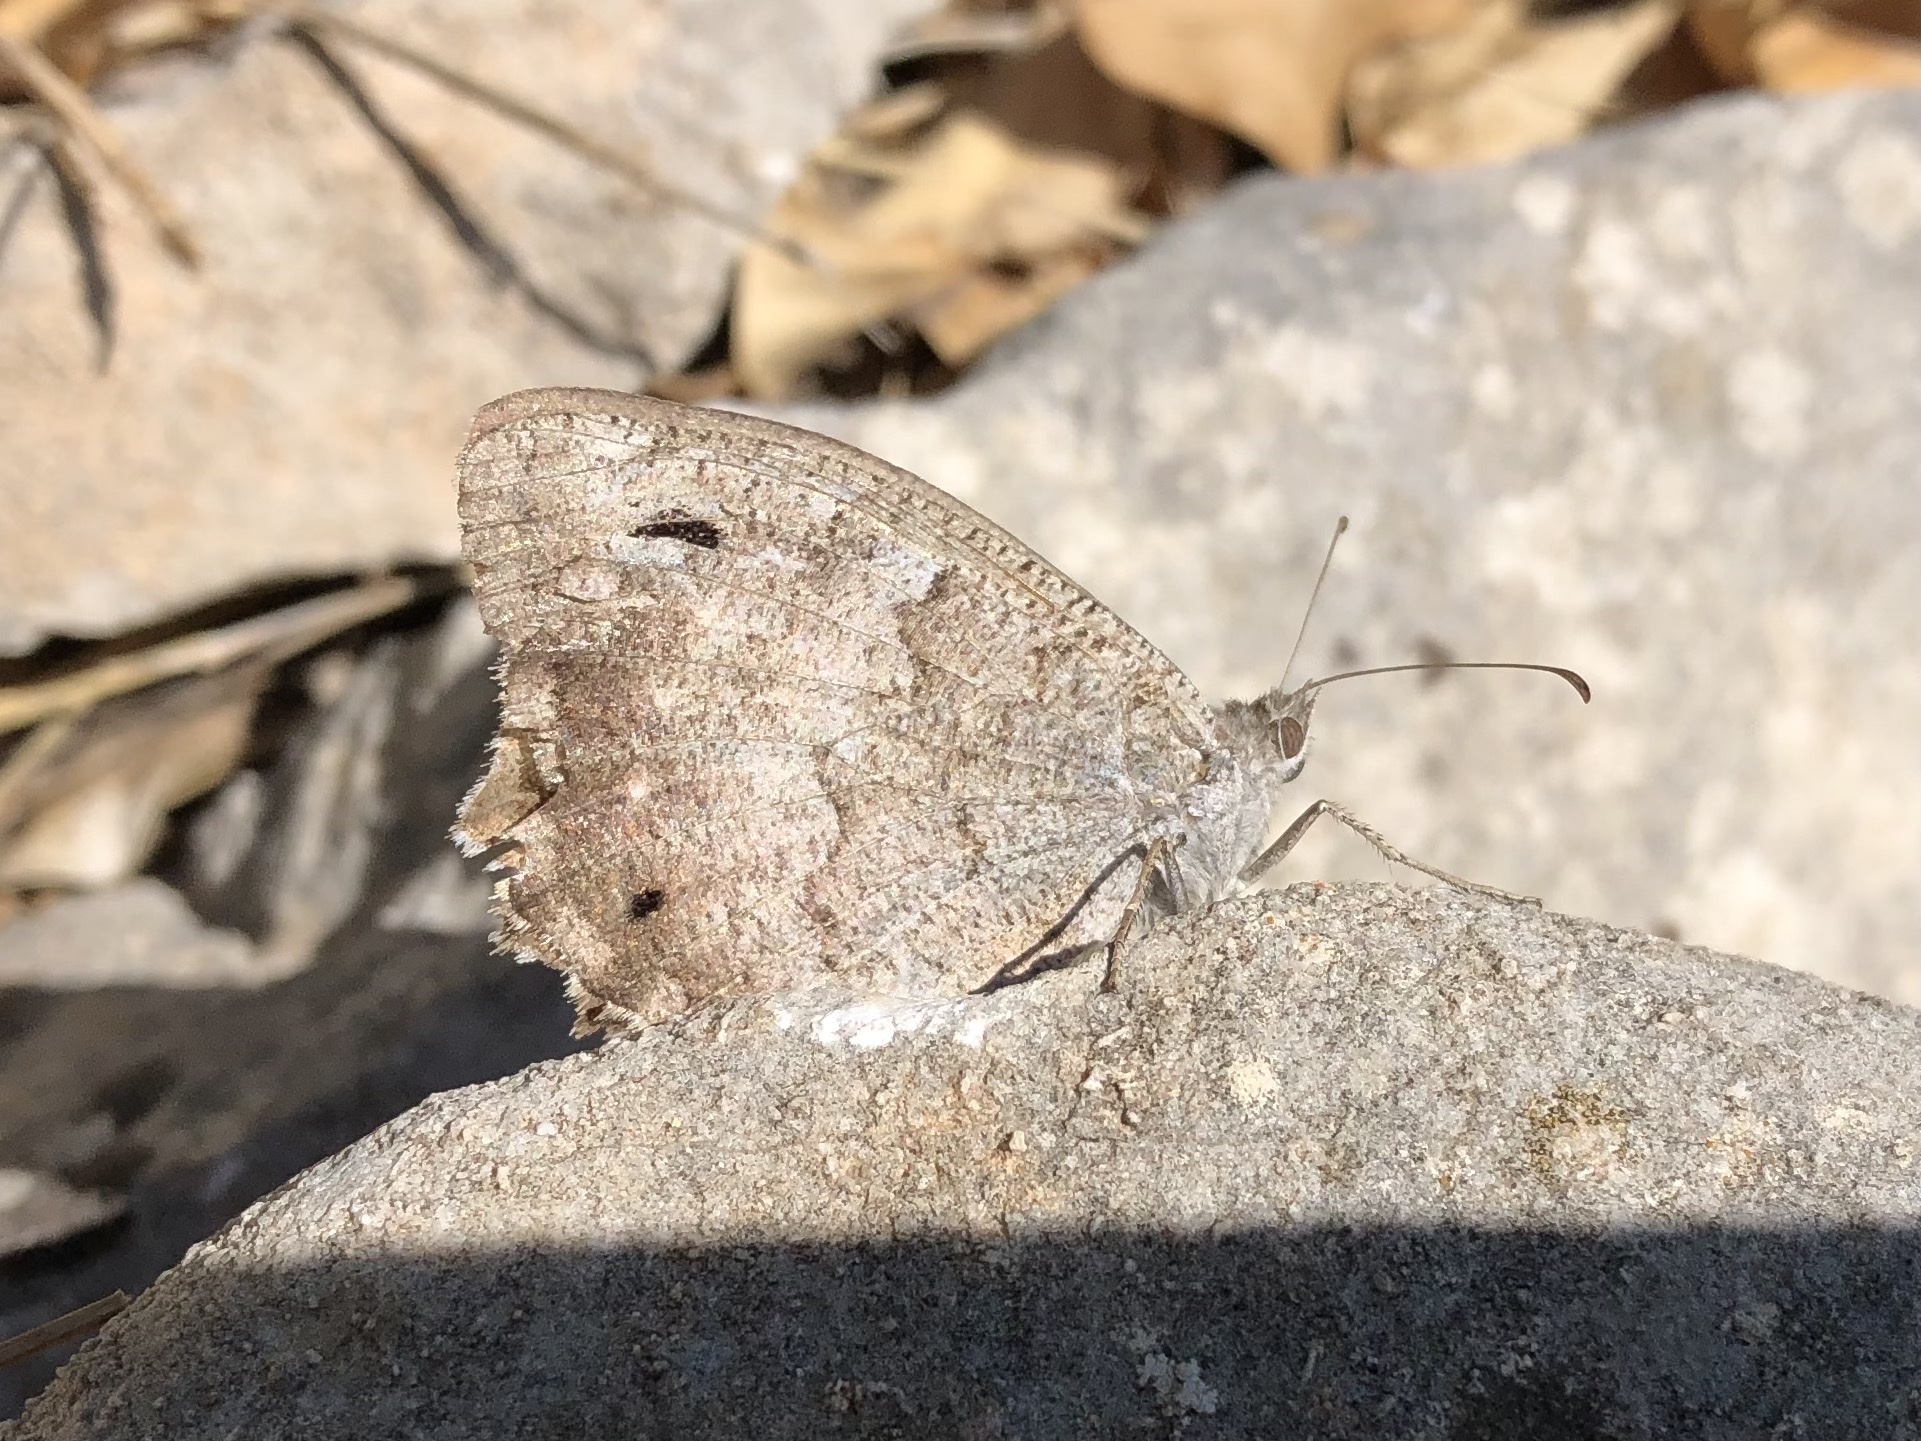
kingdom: Animalia
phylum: Arthropoda
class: Insecta
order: Lepidoptera
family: Nymphalidae
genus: Hipparchia
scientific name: Hipparchia statilinus
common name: Tree grayling
